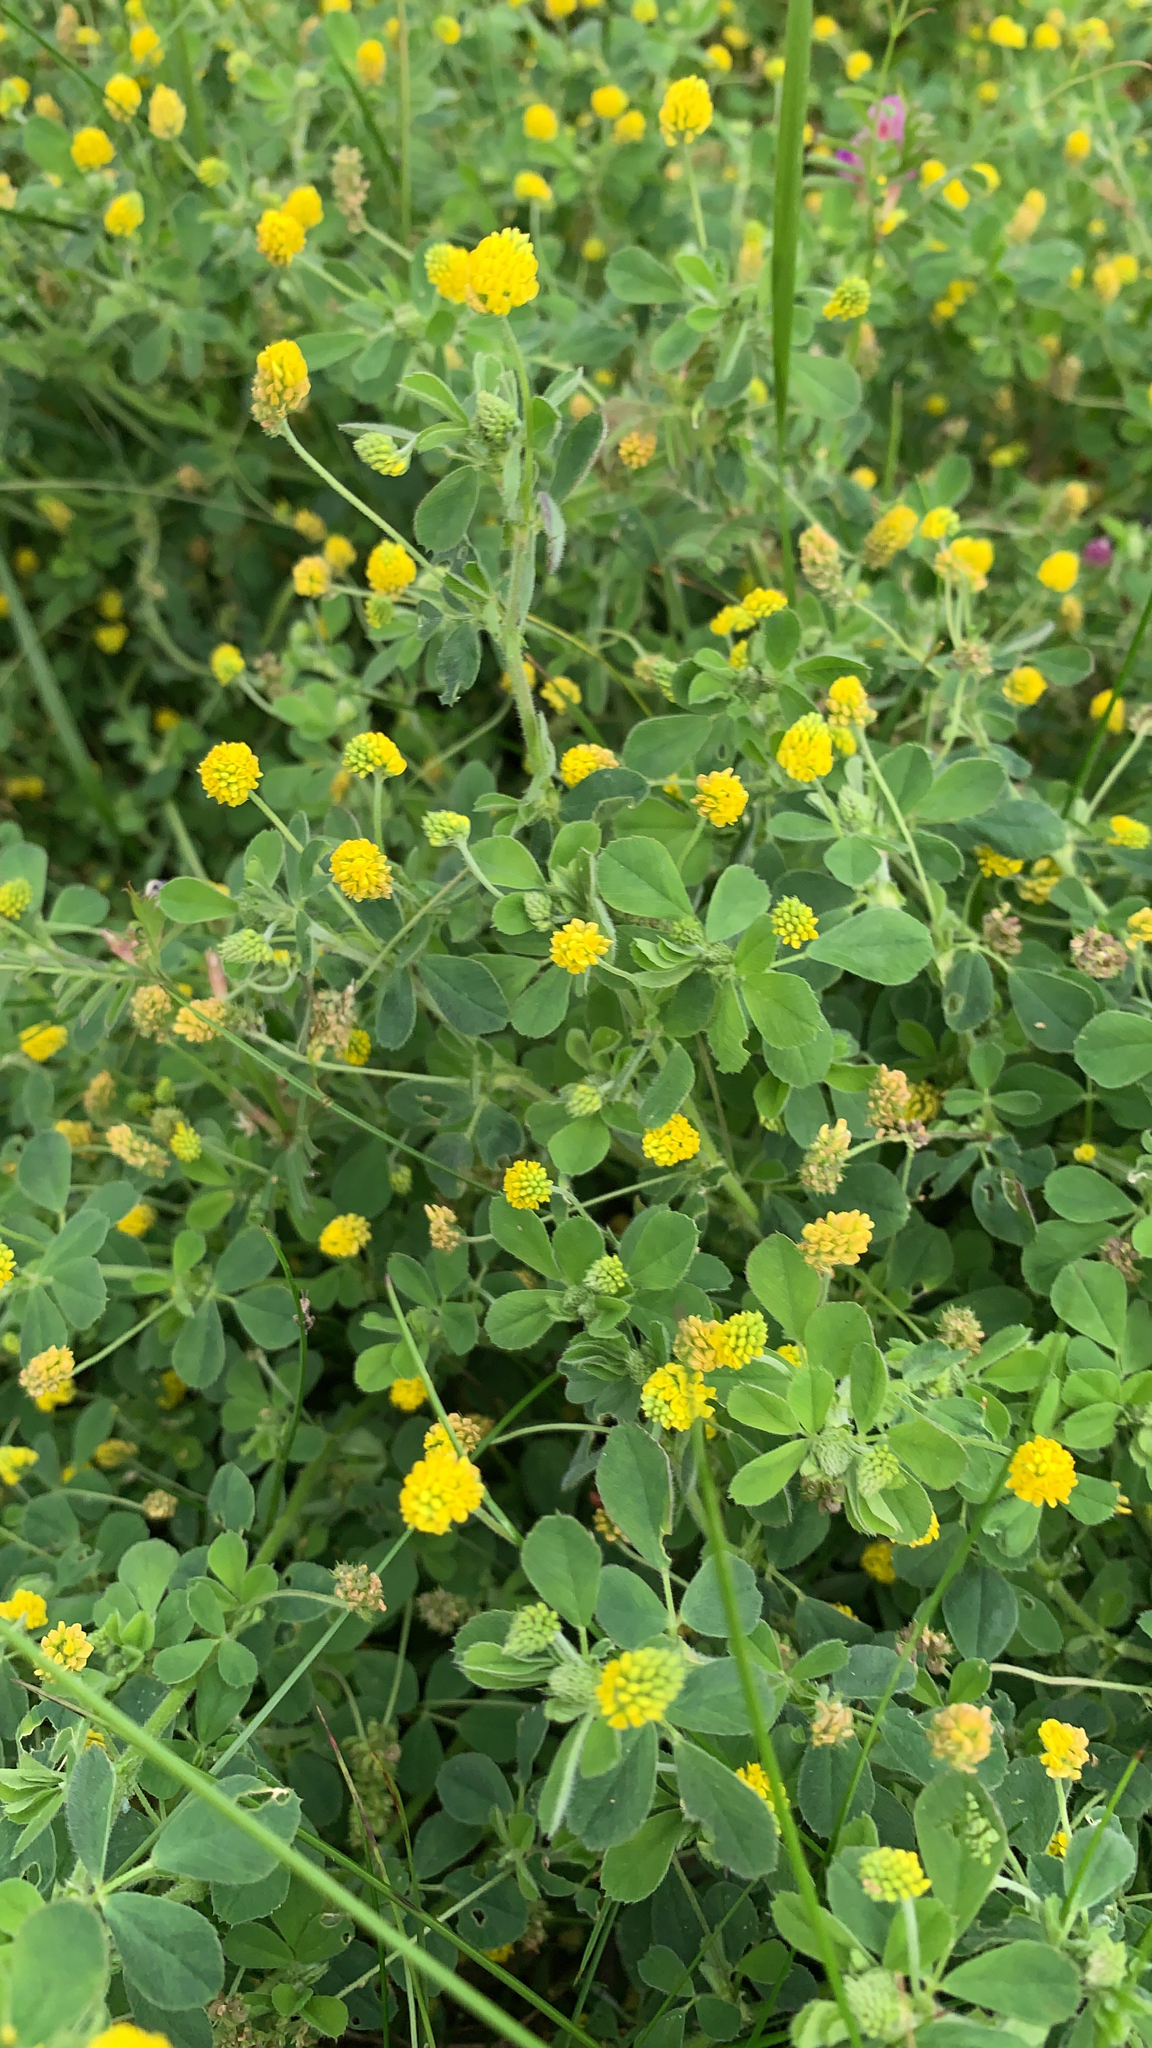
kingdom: Plantae
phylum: Tracheophyta
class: Magnoliopsida
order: Fabales
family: Fabaceae
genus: Medicago
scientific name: Medicago lupulina
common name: Black medick
